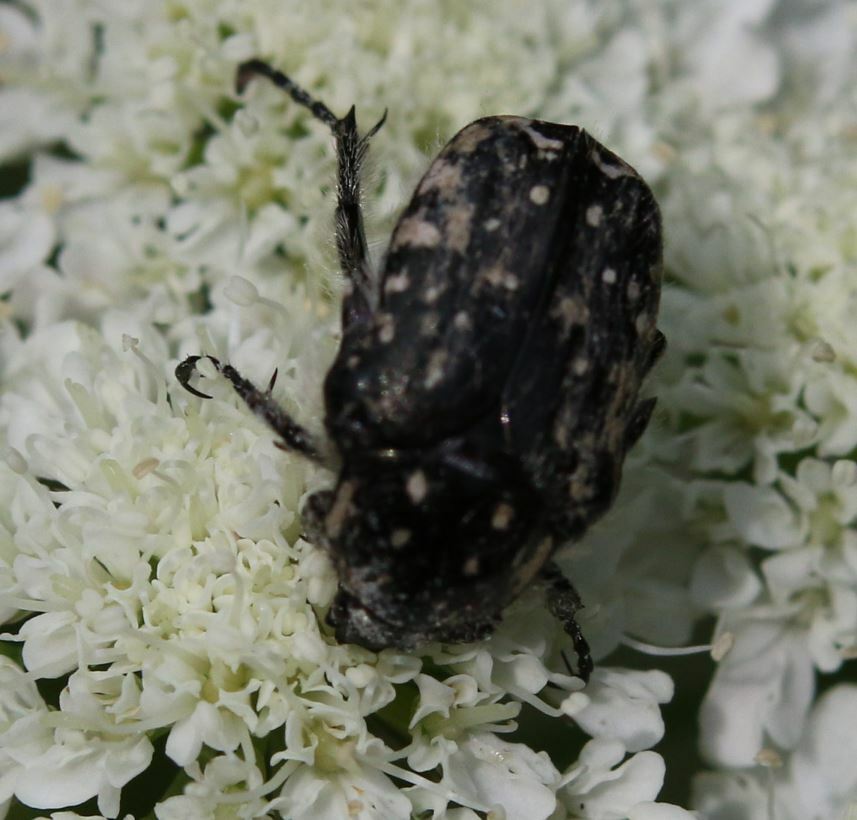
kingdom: Animalia
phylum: Arthropoda
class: Insecta
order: Coleoptera
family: Scarabaeidae
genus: Oxythyrea
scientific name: Oxythyrea funesta
